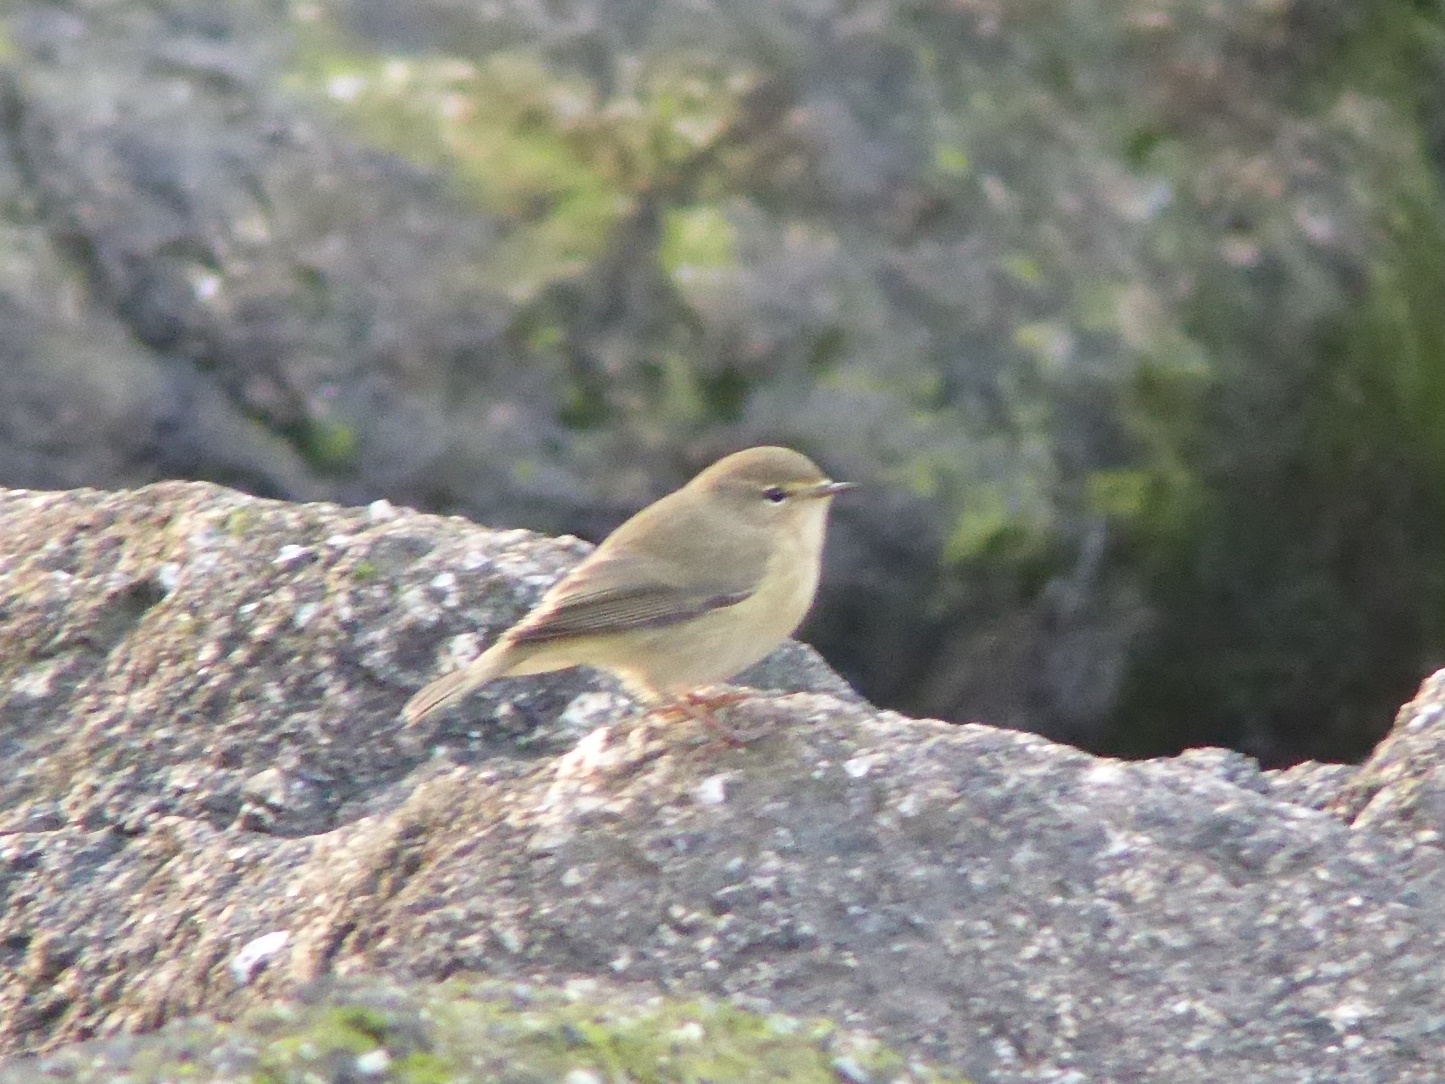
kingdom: Animalia
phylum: Chordata
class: Aves
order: Passeriformes
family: Phylloscopidae
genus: Phylloscopus
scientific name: Phylloscopus collybita
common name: Common chiffchaff
